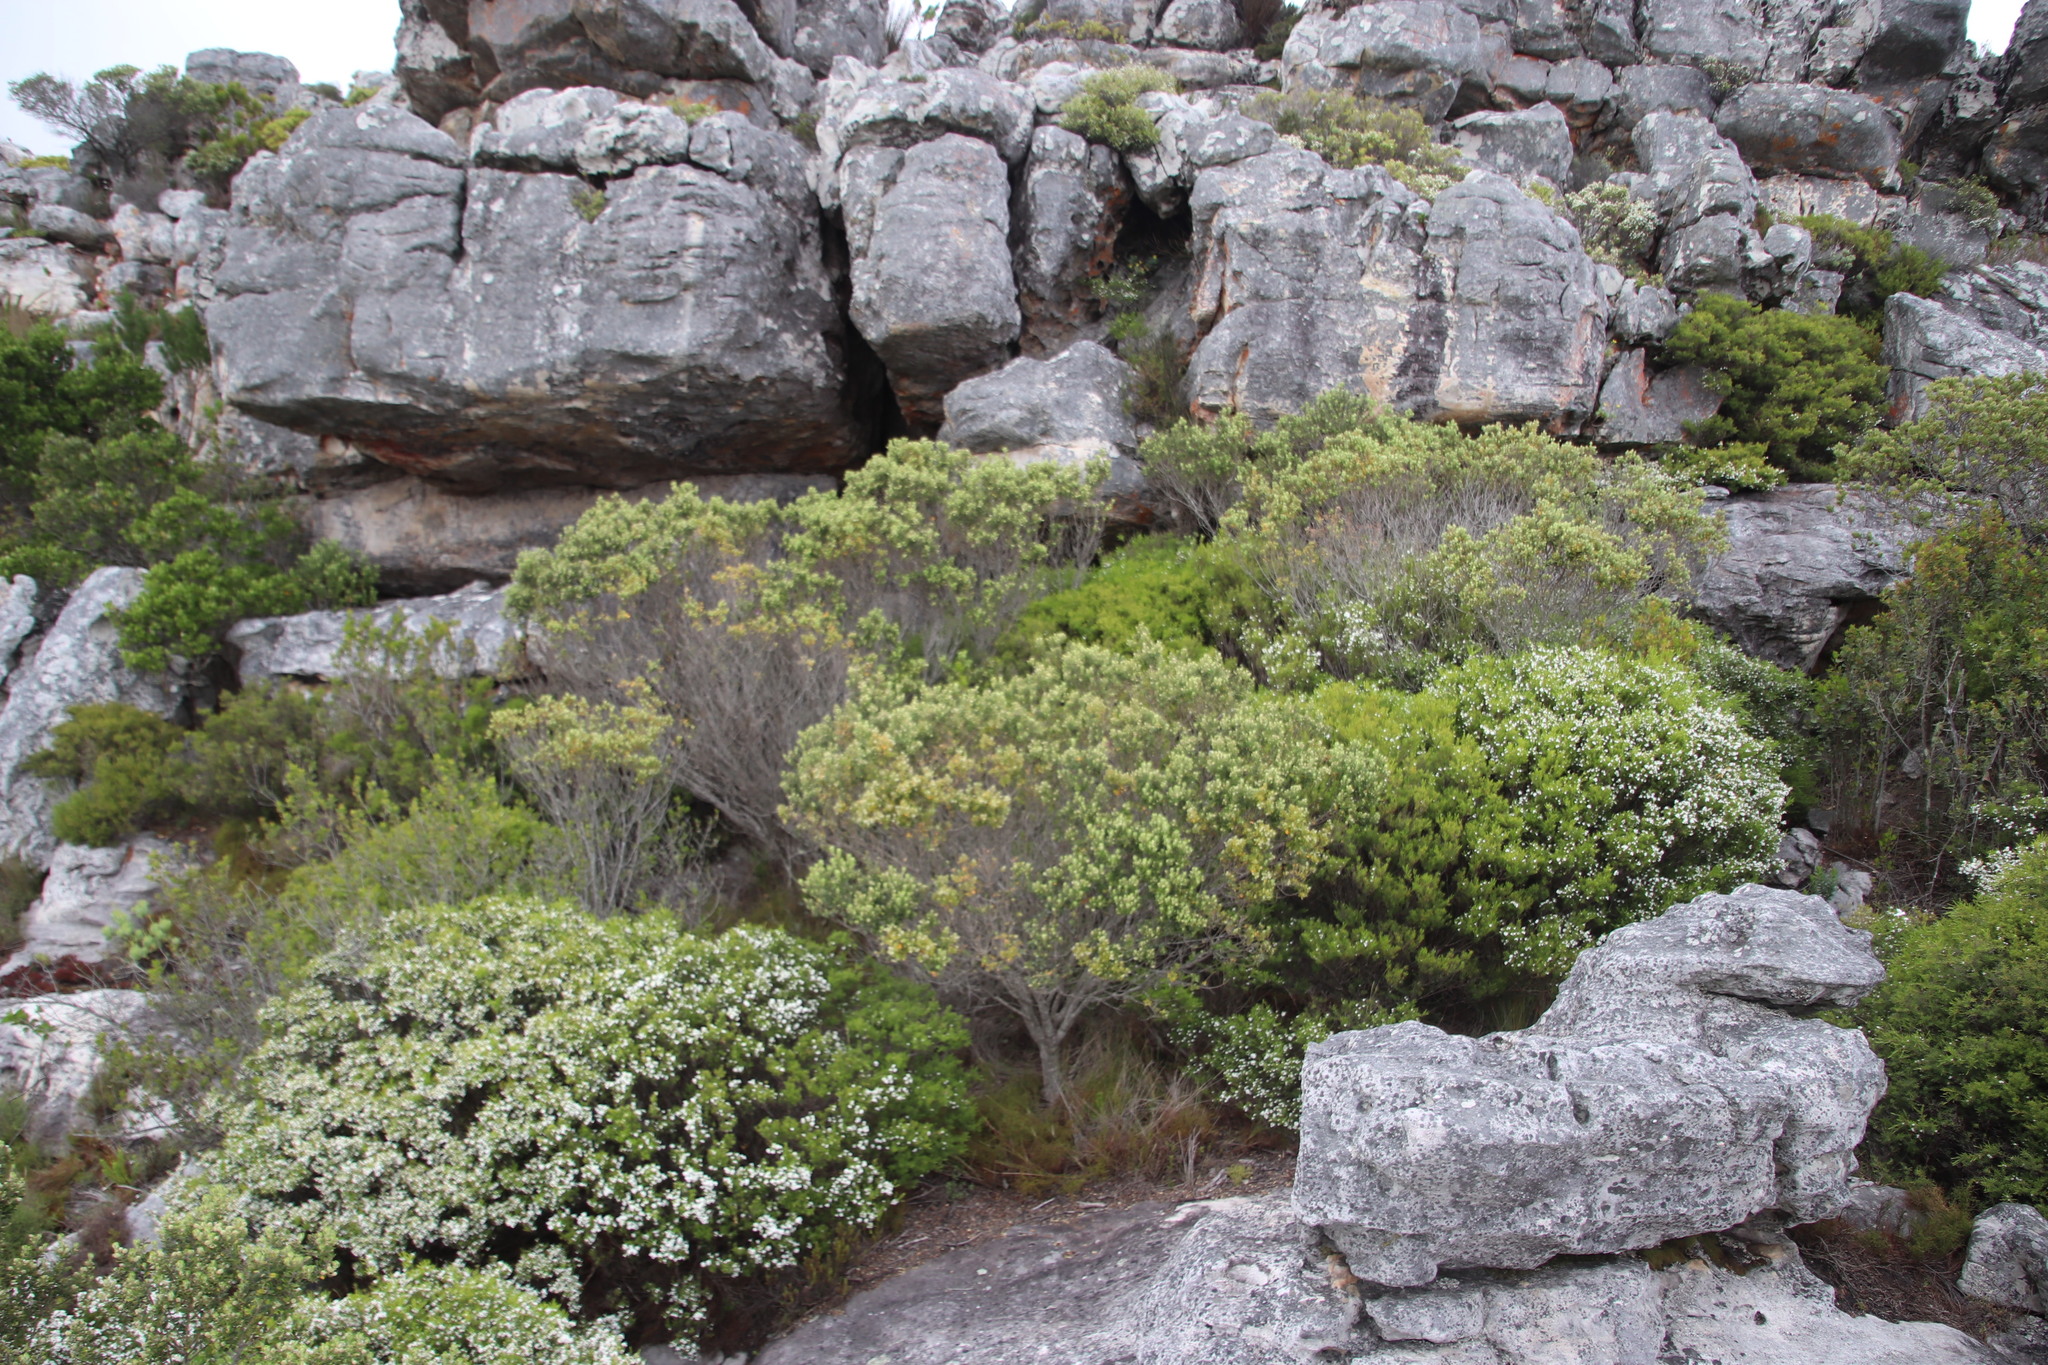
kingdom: Plantae
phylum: Tracheophyta
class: Magnoliopsida
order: Sapindales
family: Rutaceae
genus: Coleonema
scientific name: Coleonema album
